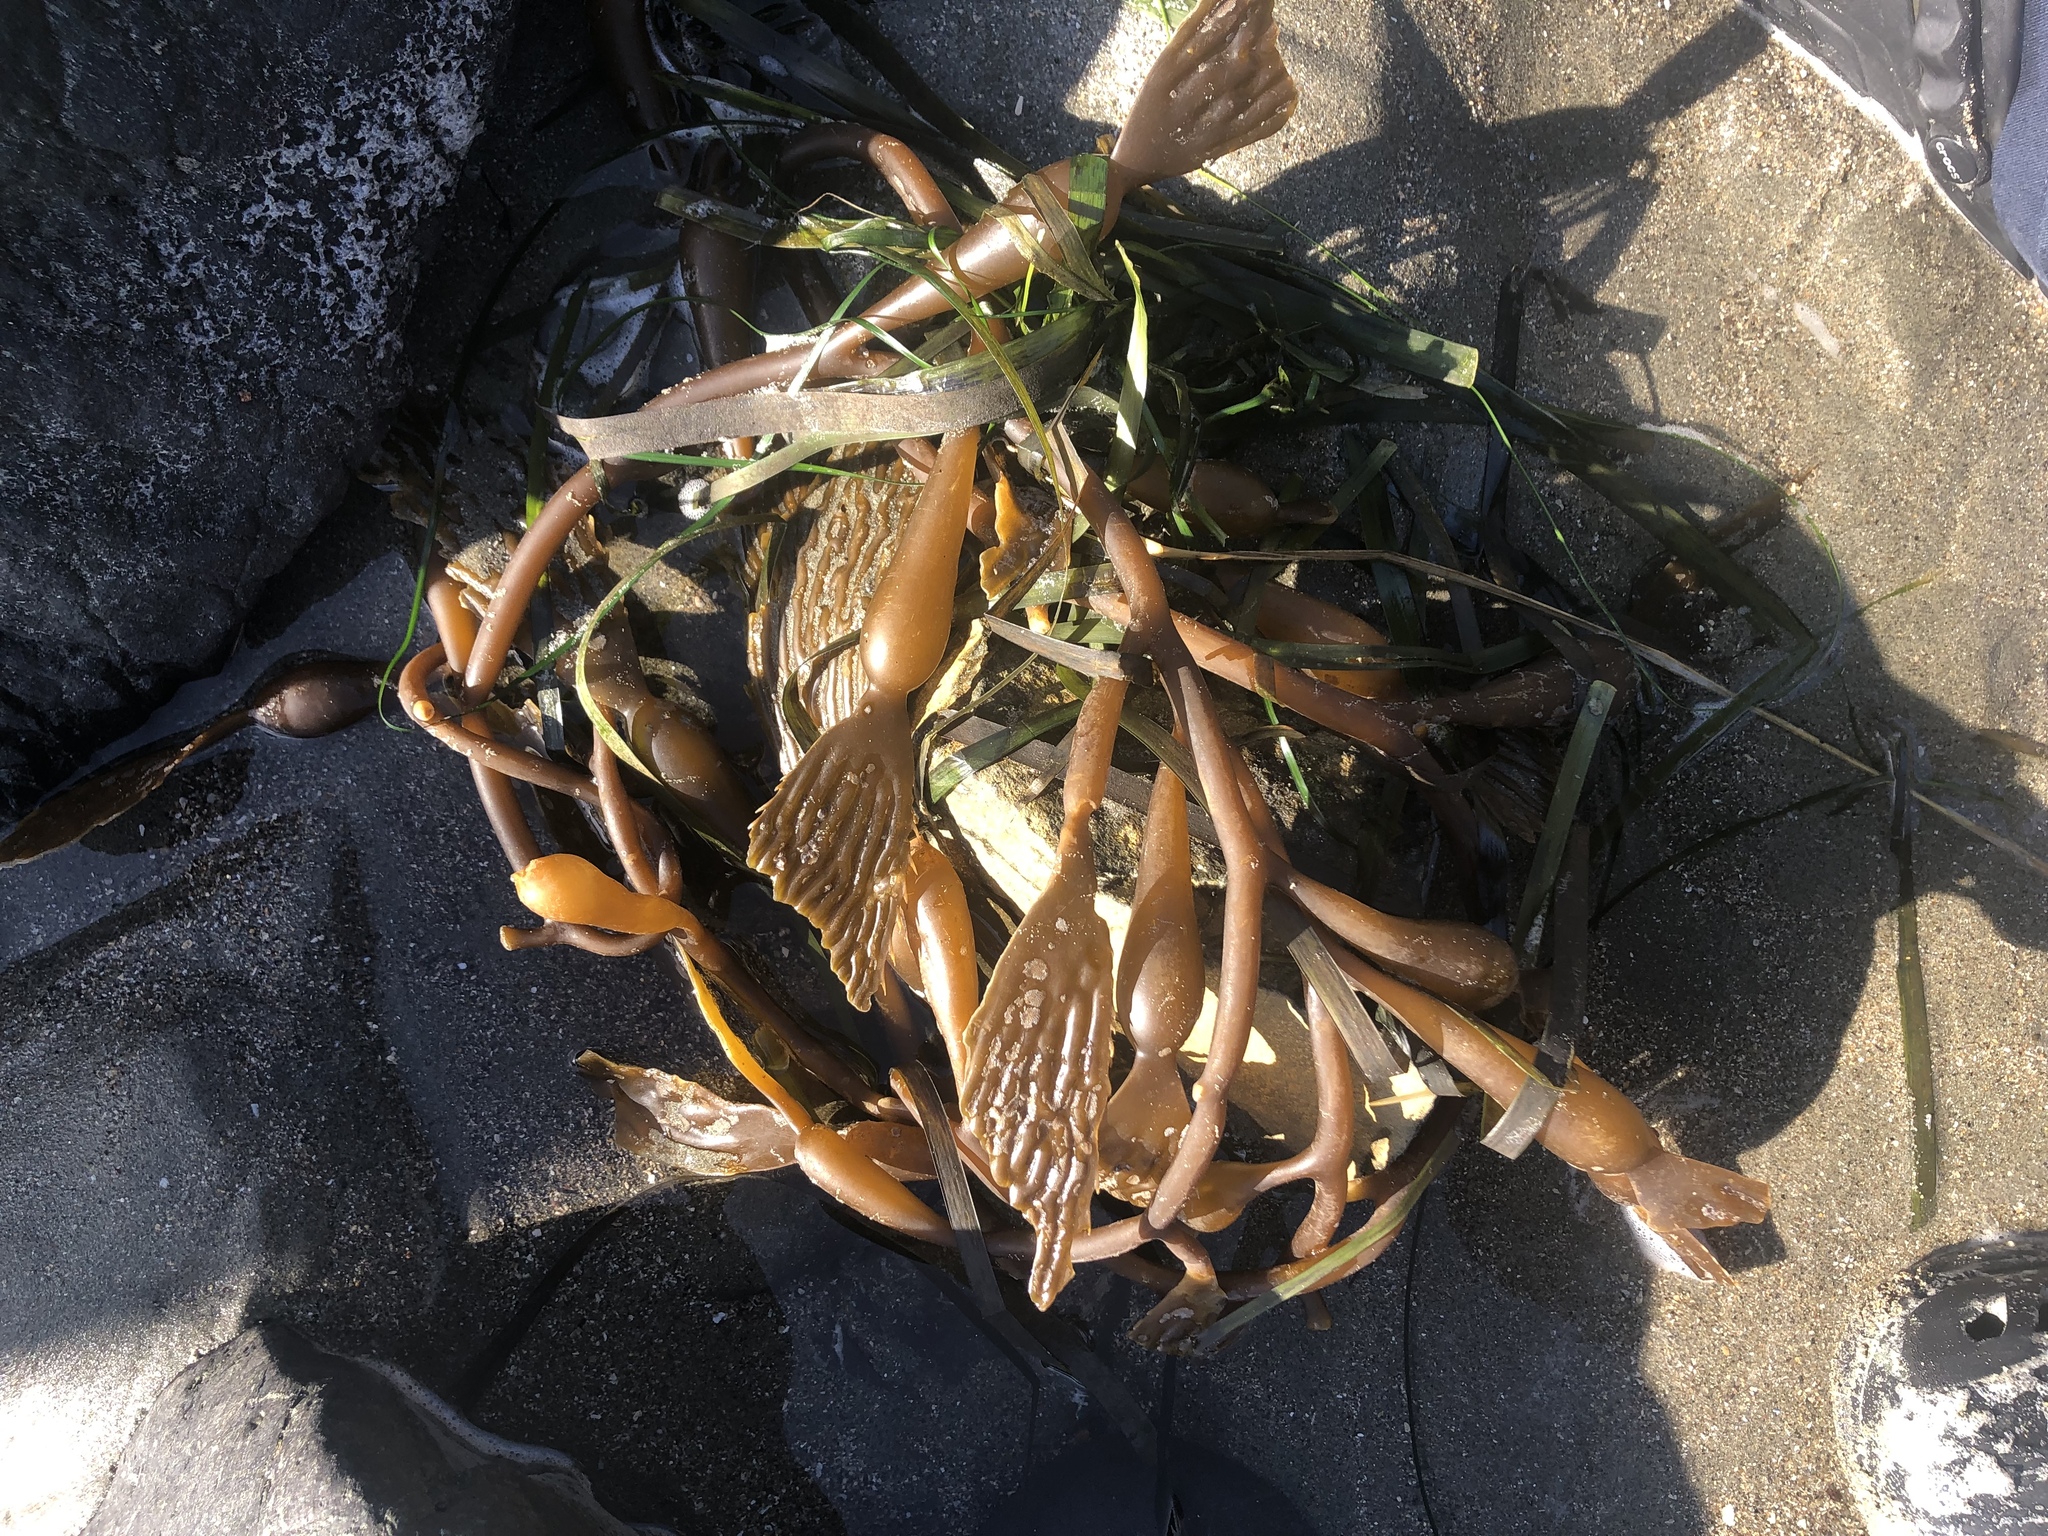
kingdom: Chromista
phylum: Ochrophyta
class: Phaeophyceae
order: Laminariales
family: Laminariaceae
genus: Macrocystis
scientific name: Macrocystis pyrifera
